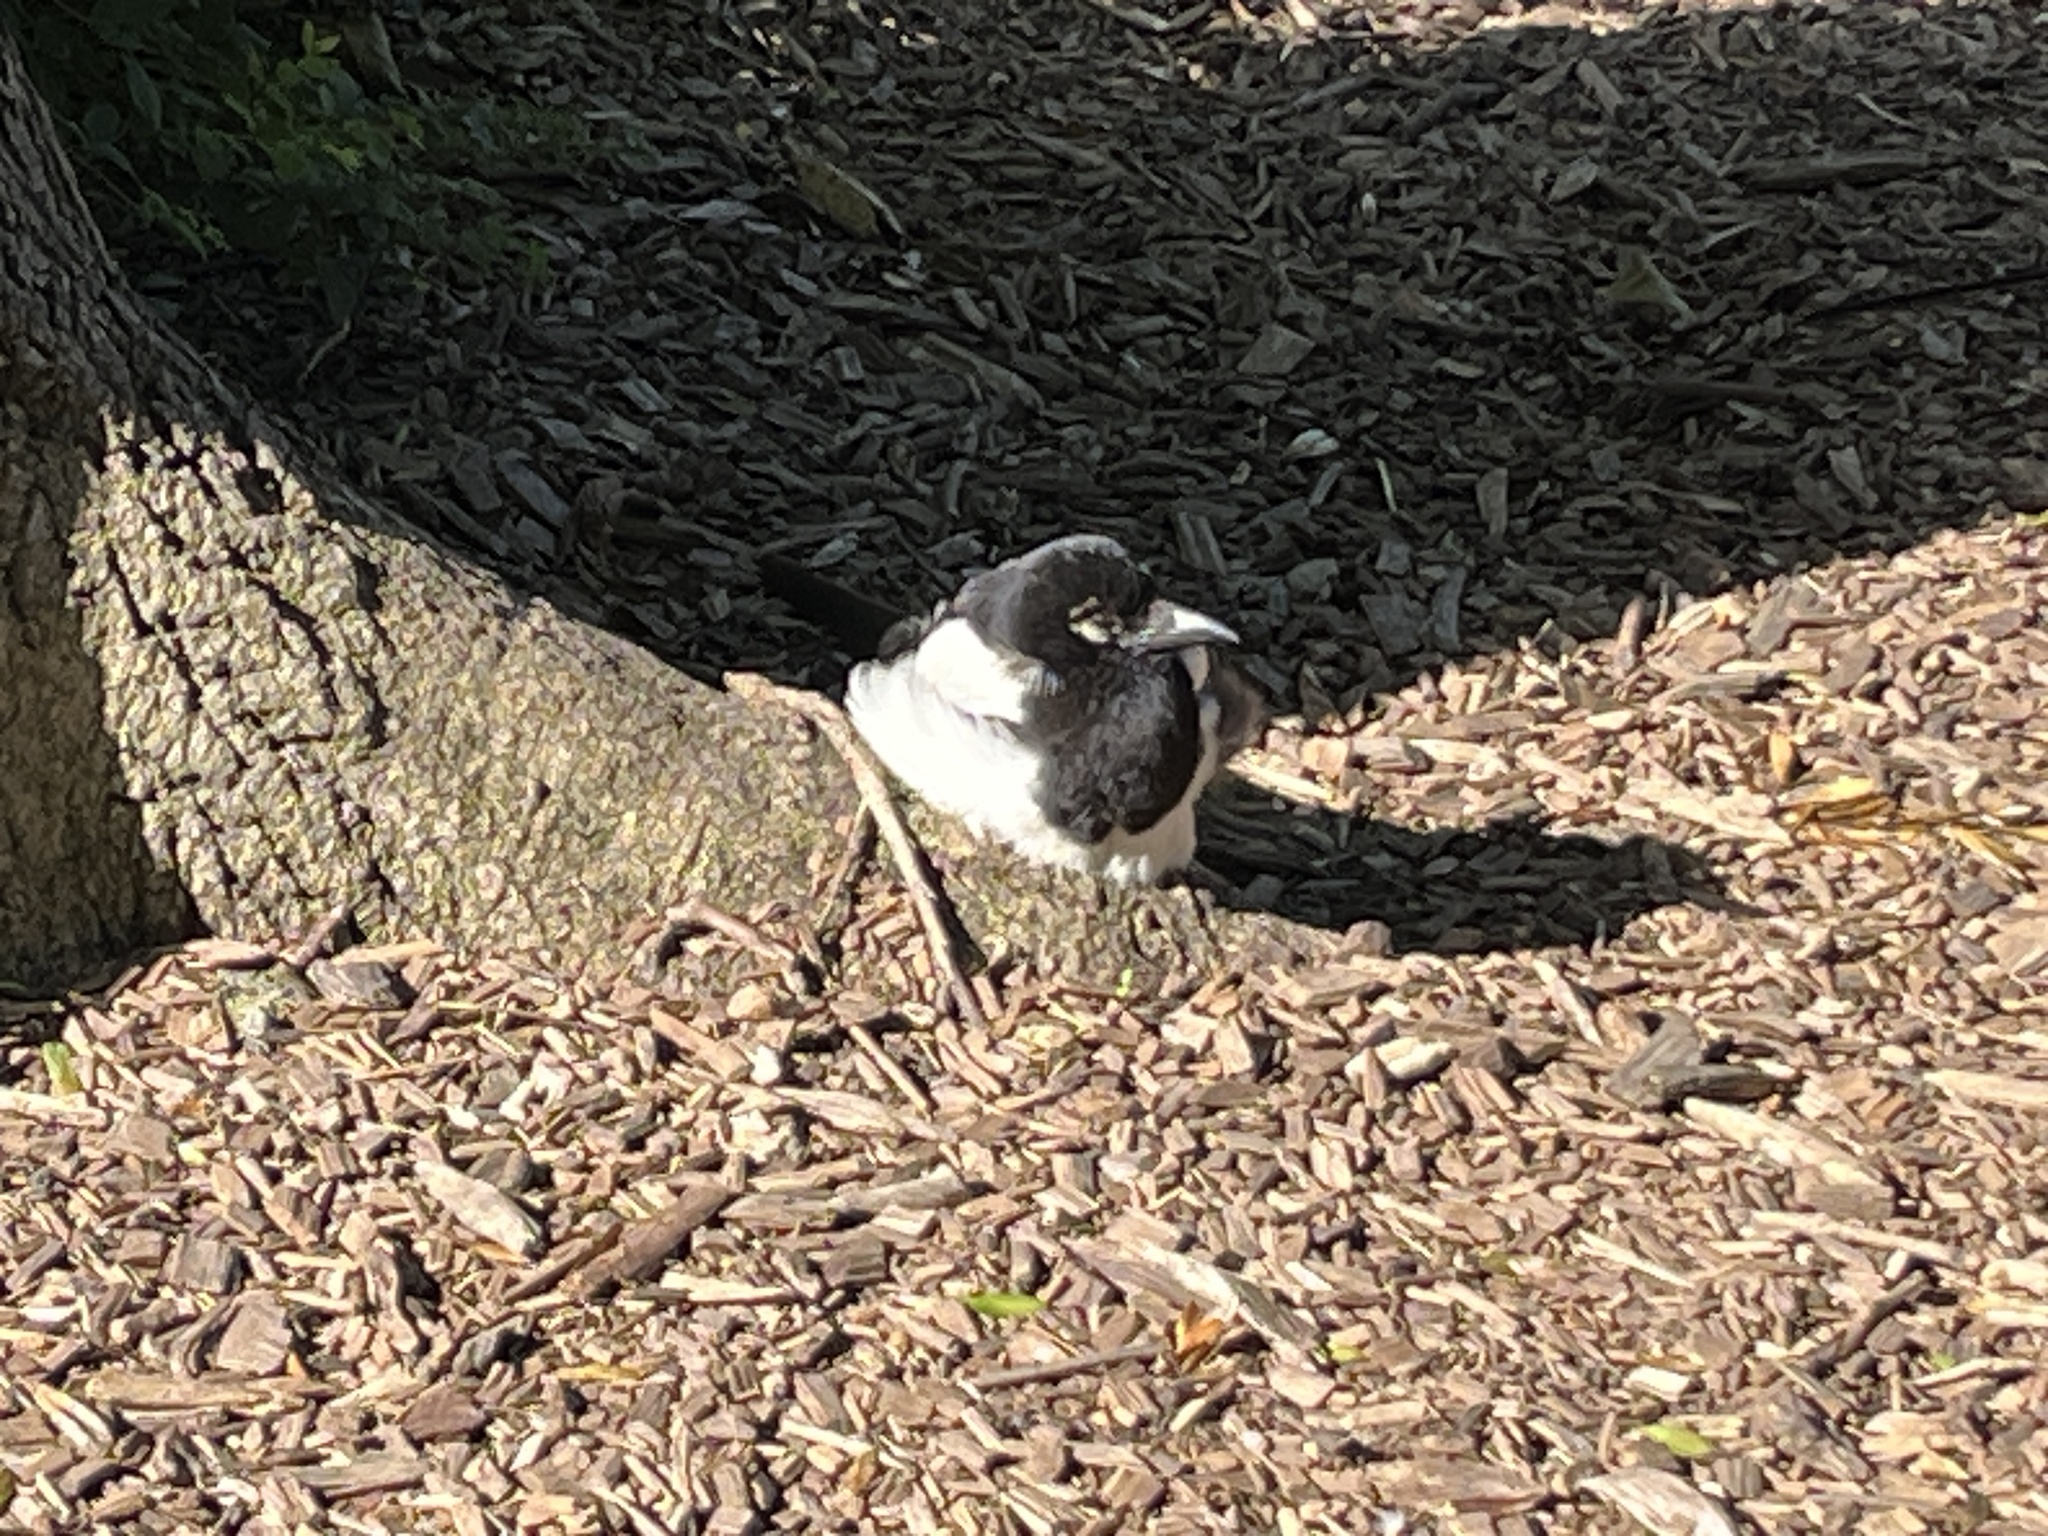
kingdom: Animalia
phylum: Chordata
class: Aves
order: Passeriformes
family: Corvidae
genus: Pica
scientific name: Pica pica
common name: Eurasian magpie
